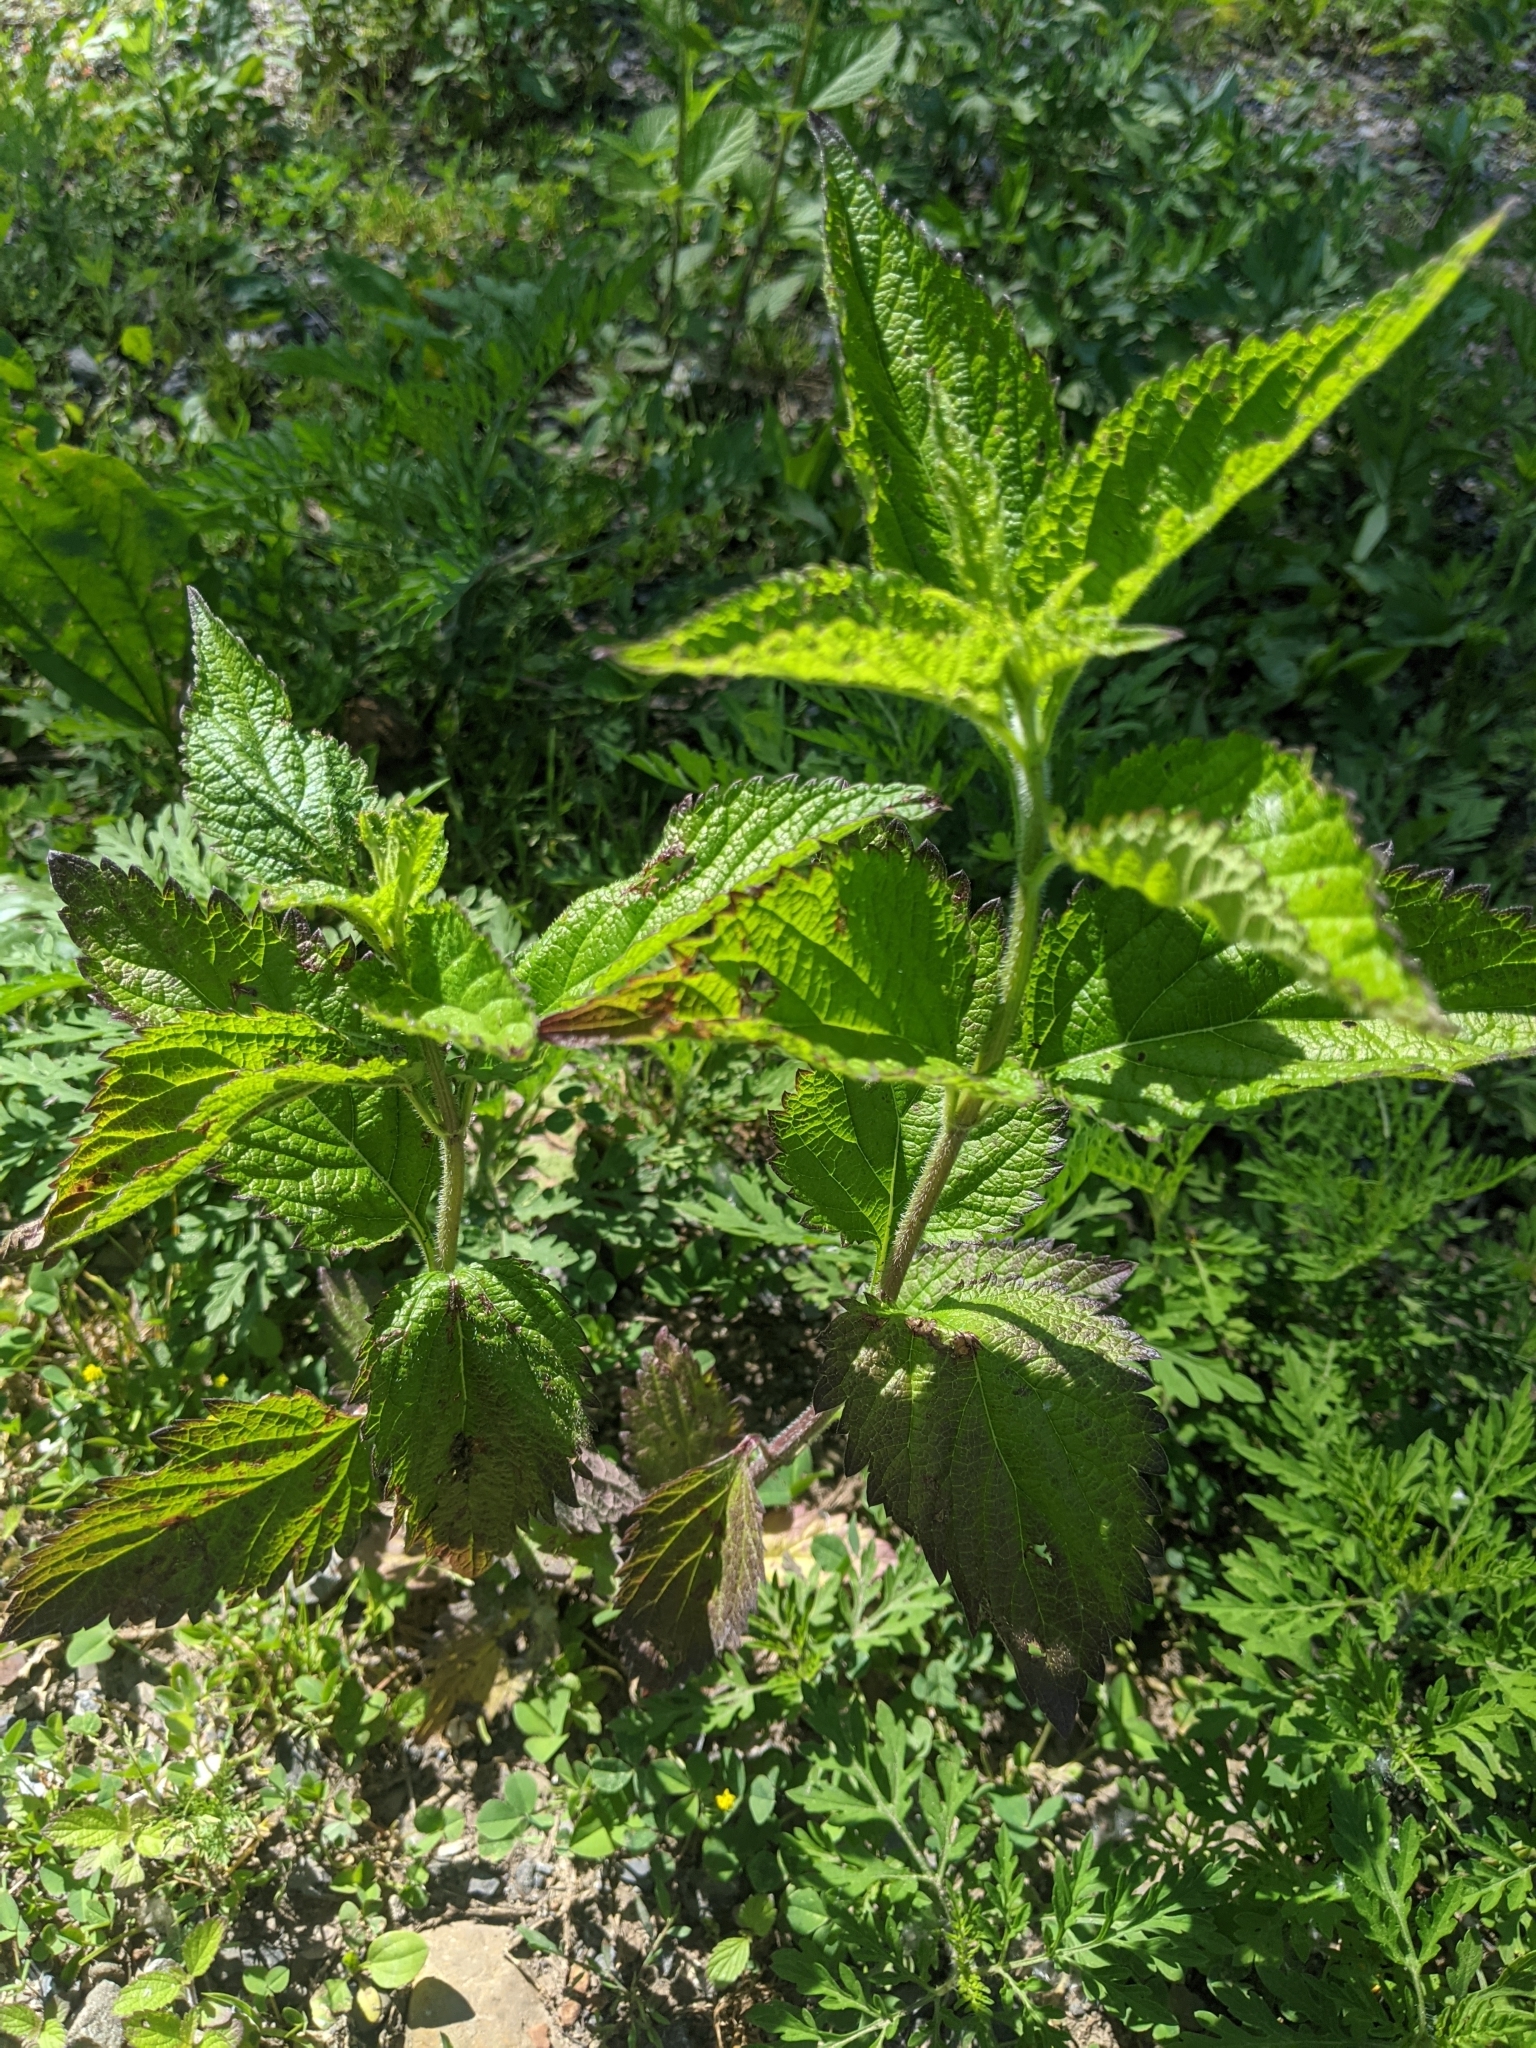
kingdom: Plantae
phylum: Tracheophyta
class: Magnoliopsida
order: Lamiales
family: Verbenaceae
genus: Verbena
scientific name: Verbena urticifolia
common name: Nettle-leaved vervain
